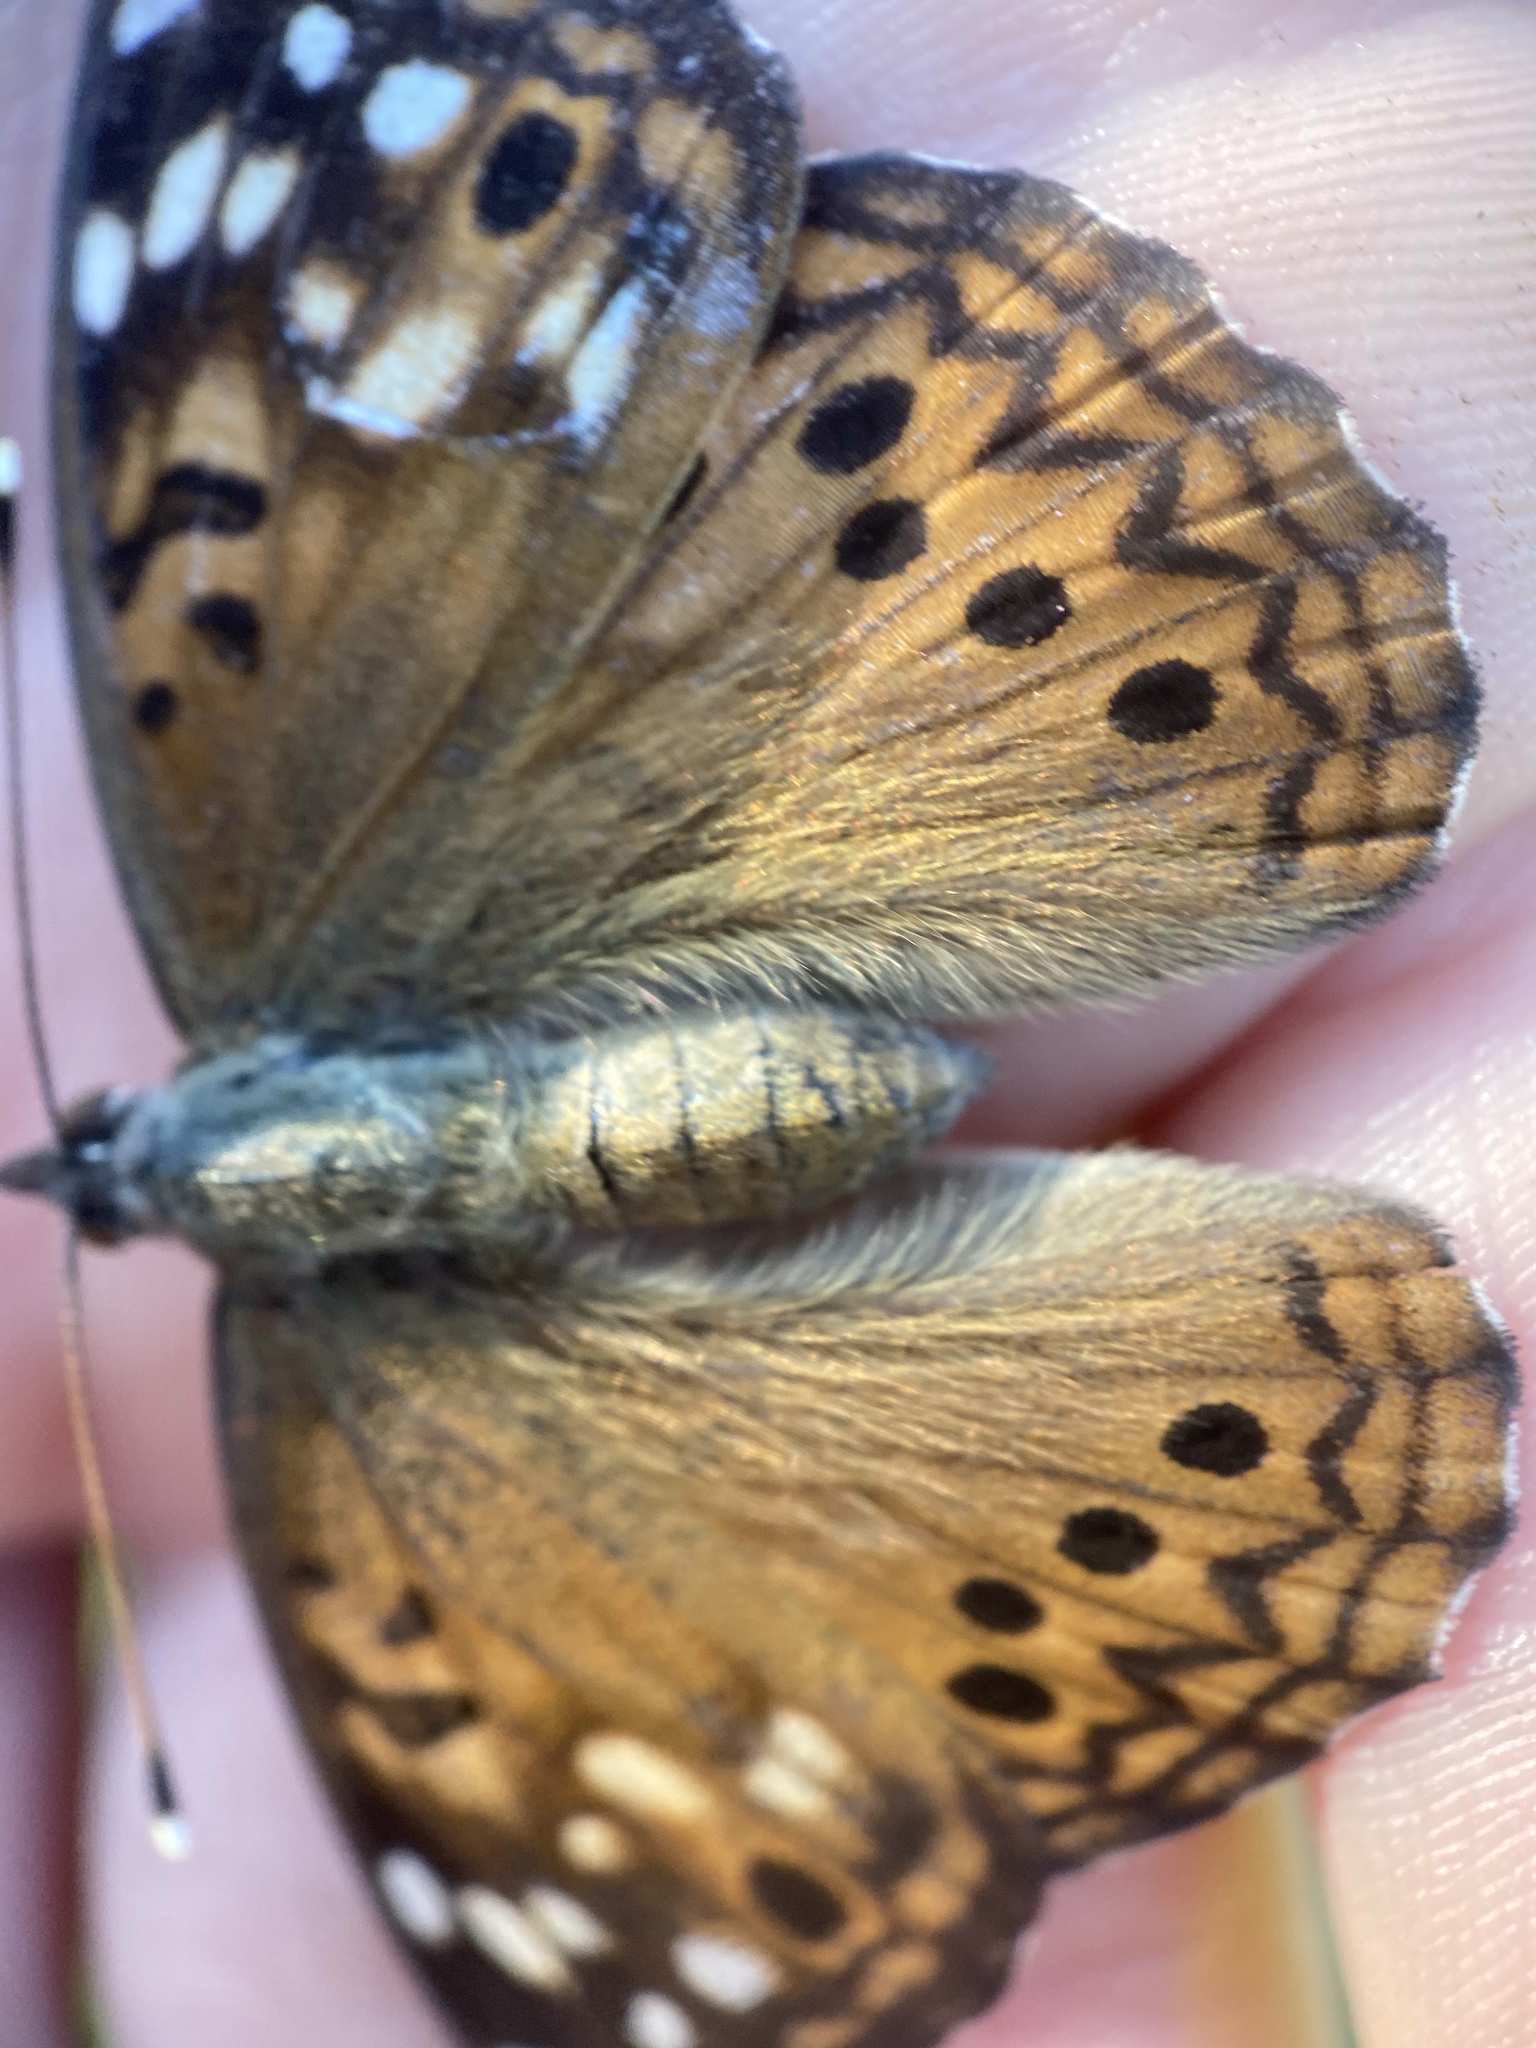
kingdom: Animalia
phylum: Arthropoda
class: Insecta
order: Lepidoptera
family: Nymphalidae
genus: Asterocampa
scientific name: Asterocampa celtis
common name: Hackberry emperor
